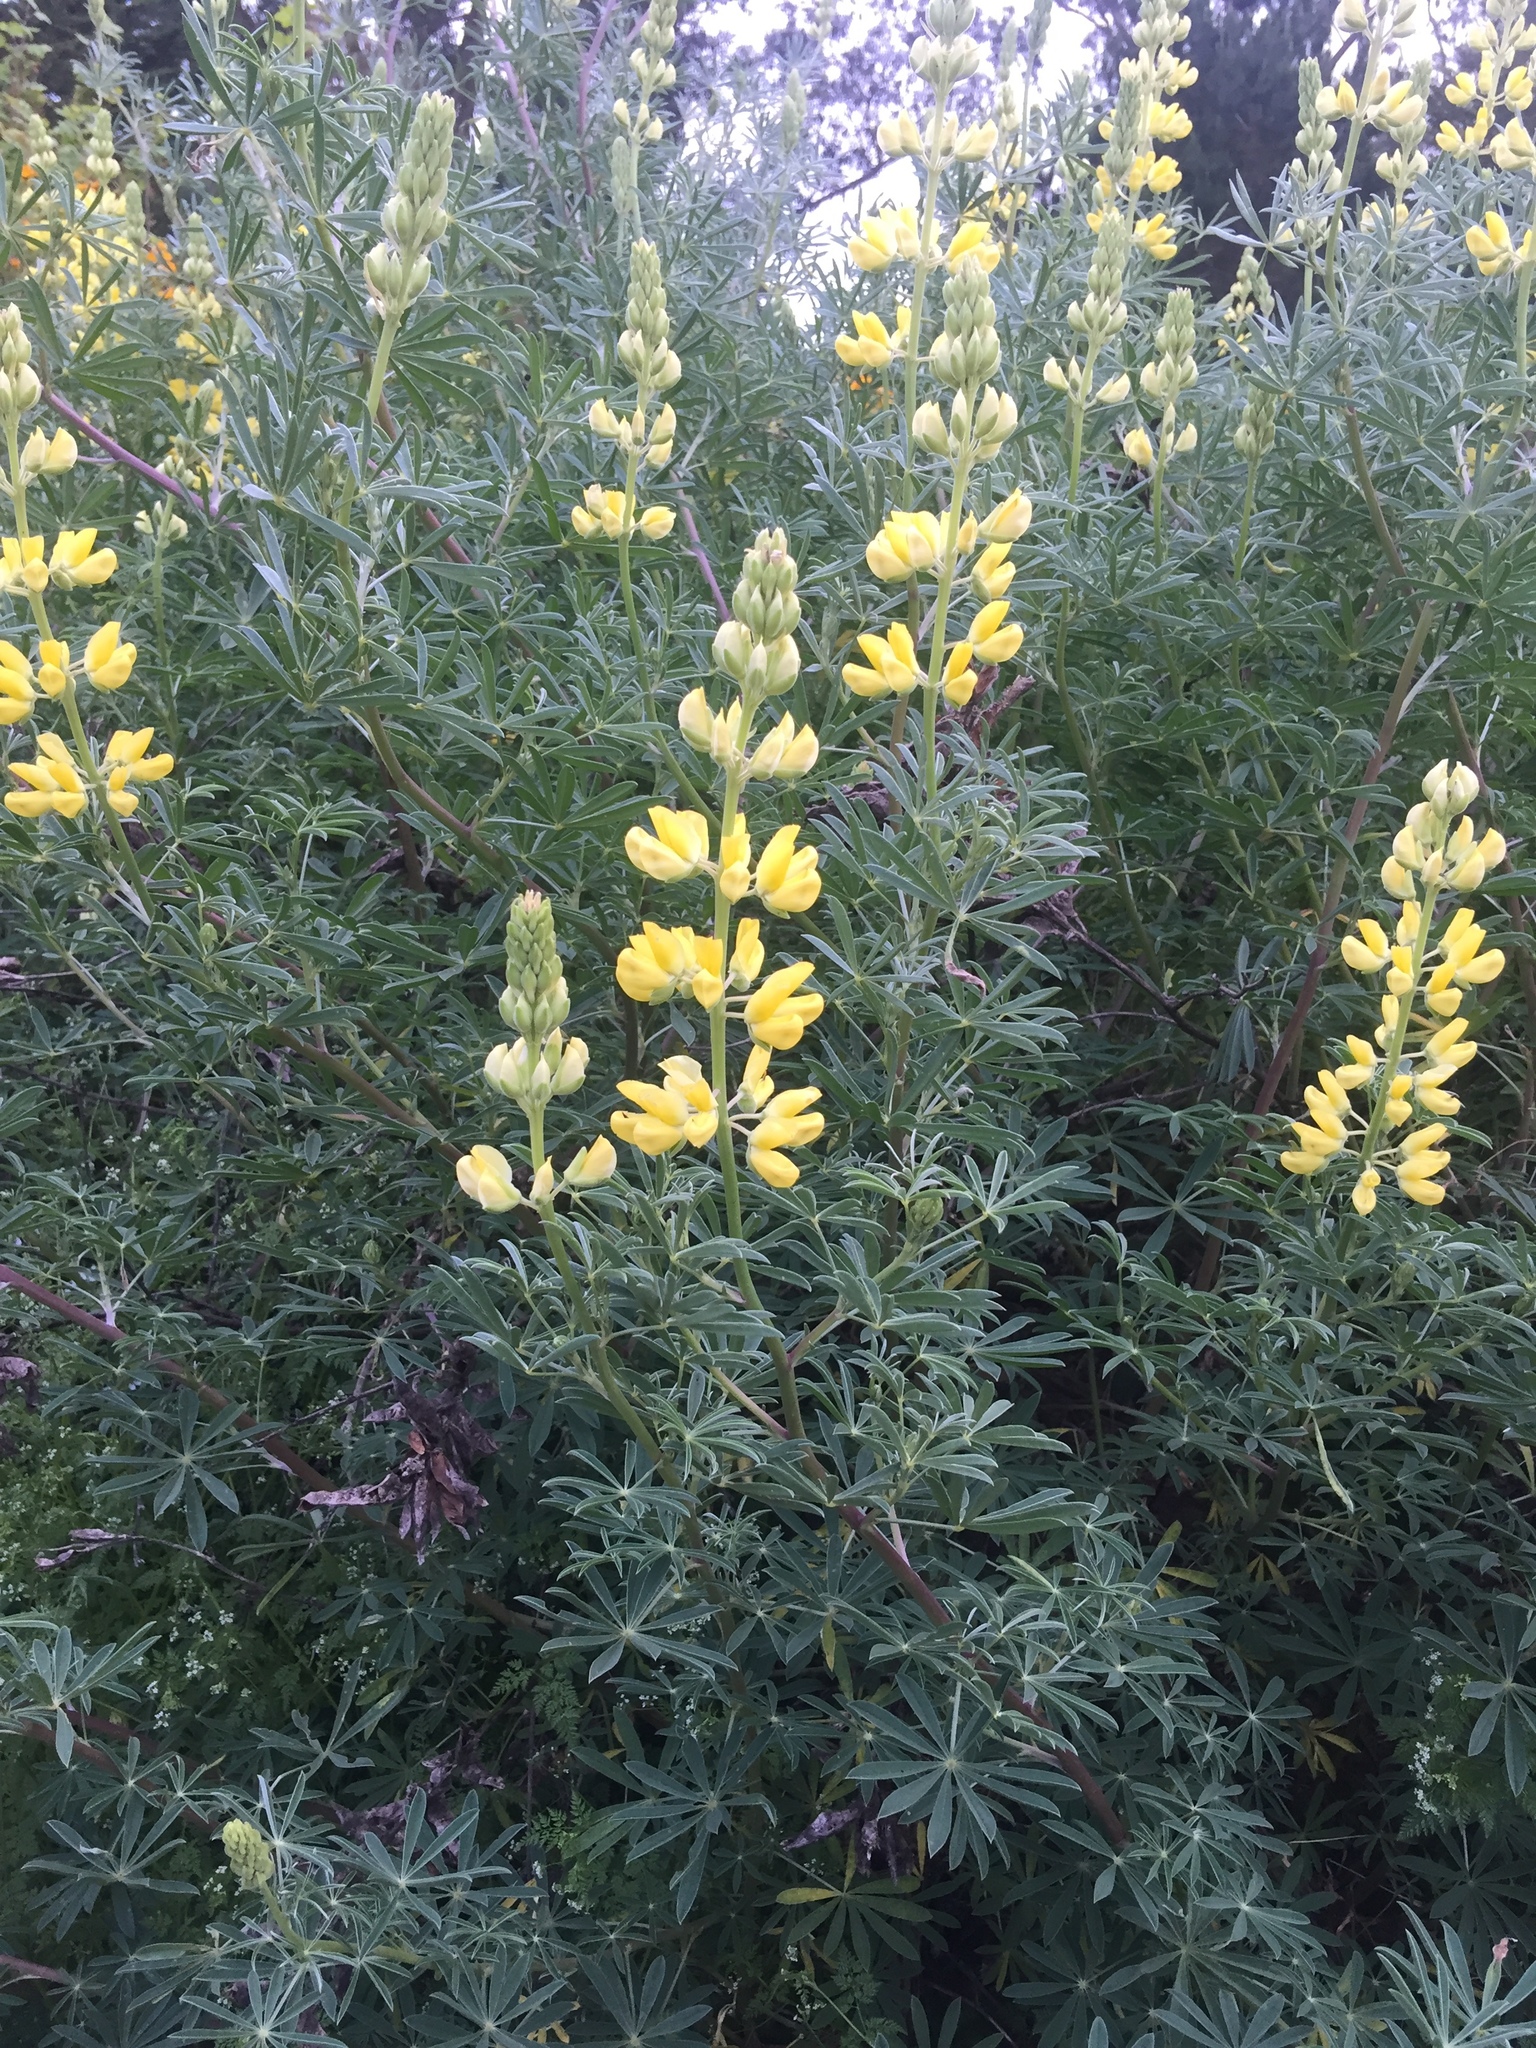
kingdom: Plantae
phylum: Tracheophyta
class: Magnoliopsida
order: Fabales
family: Fabaceae
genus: Lupinus
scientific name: Lupinus arboreus
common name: Yellow bush lupine
